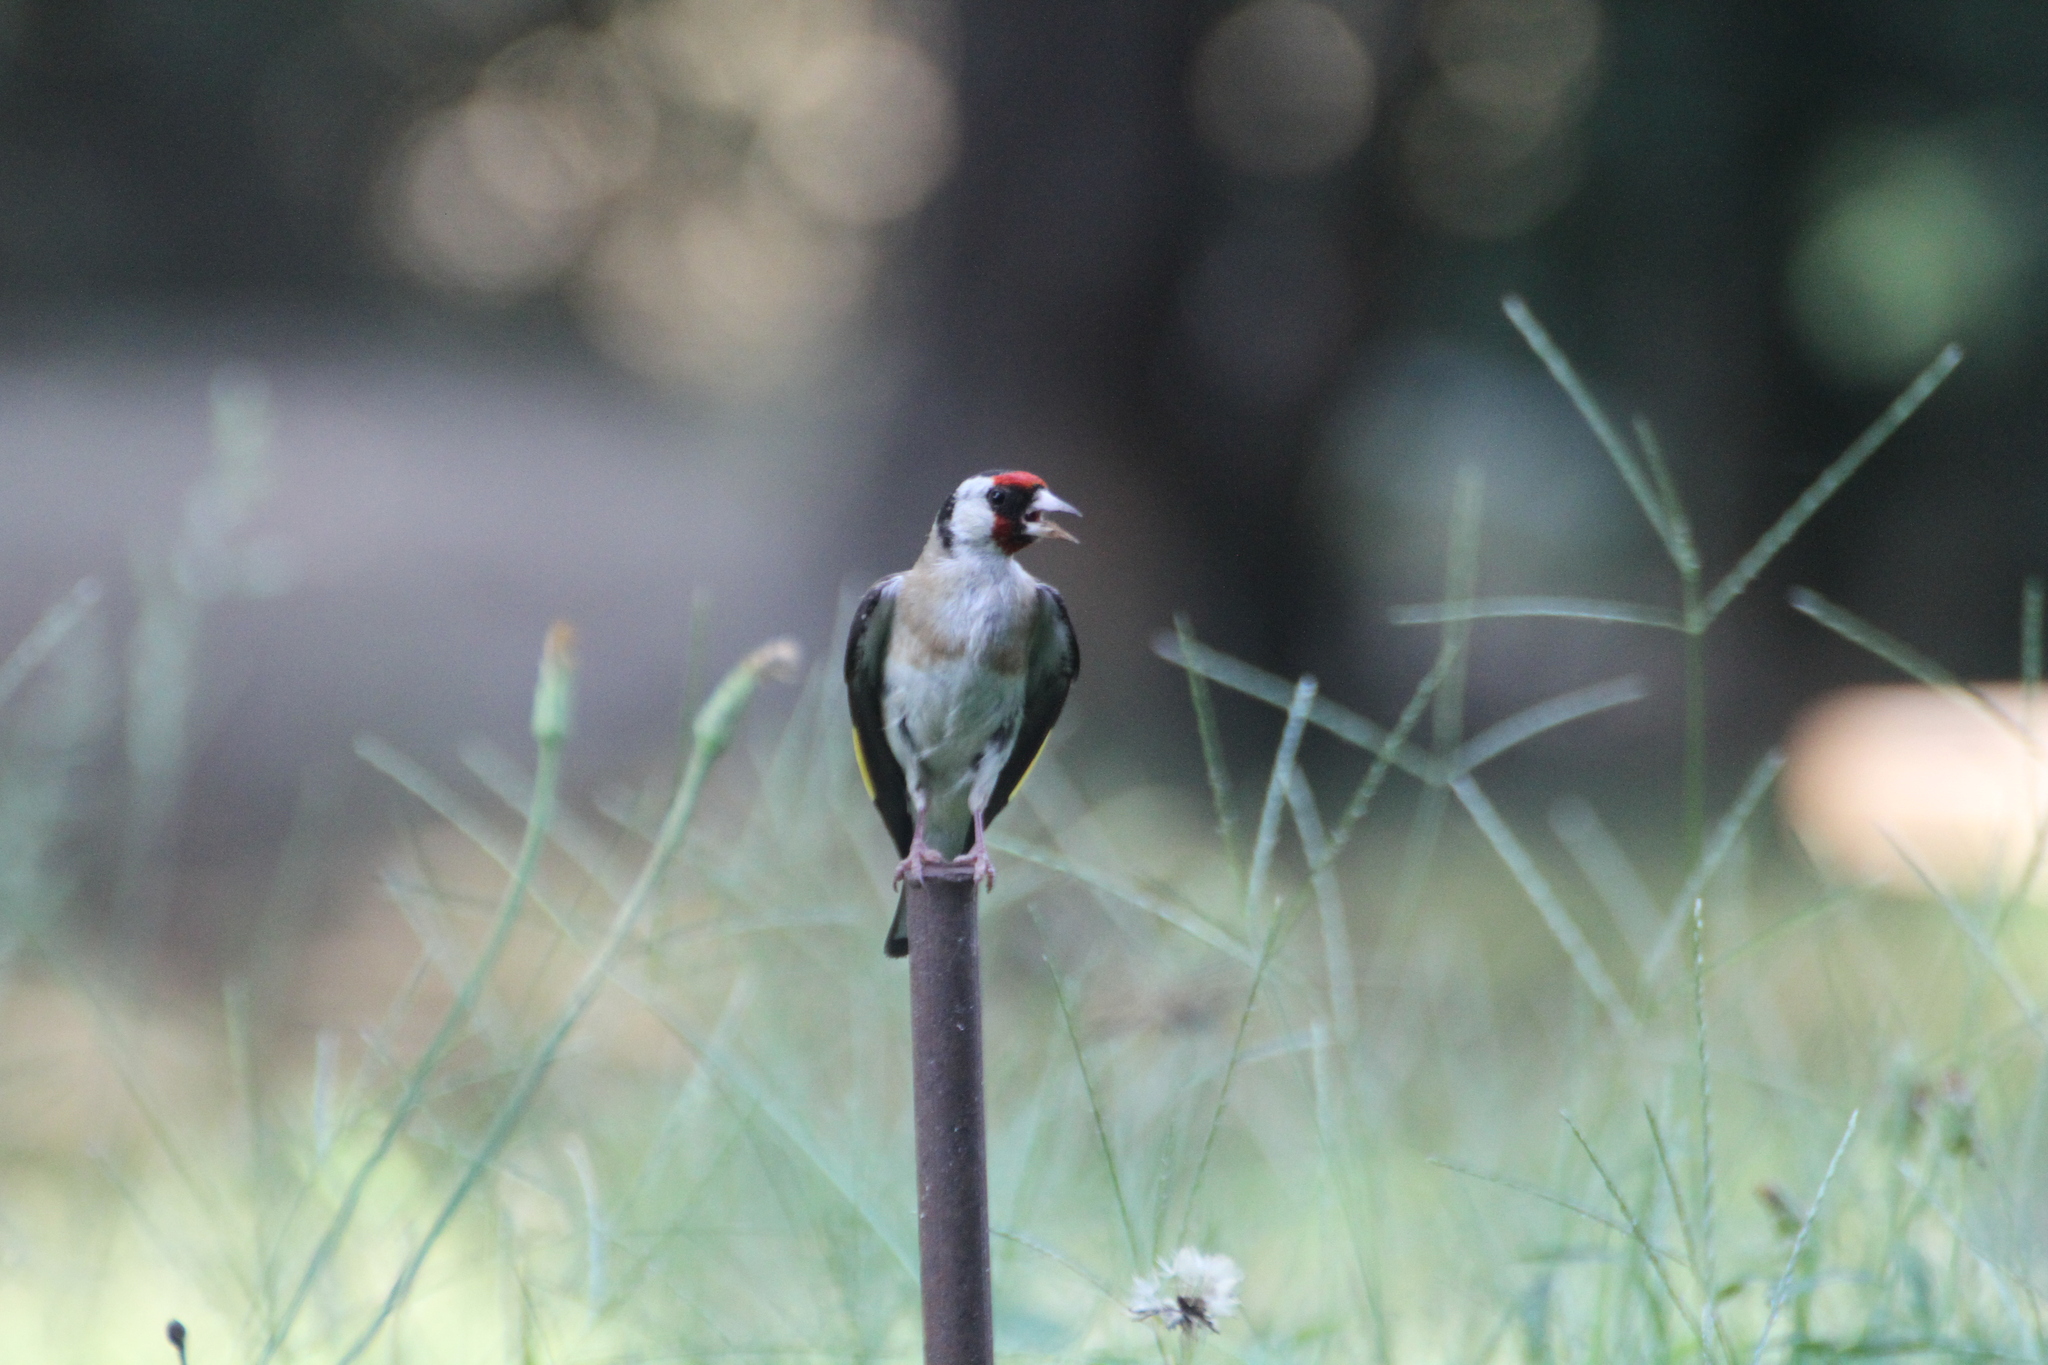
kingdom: Animalia
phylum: Chordata
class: Aves
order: Passeriformes
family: Fringillidae
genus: Carduelis
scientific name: Carduelis carduelis
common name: European goldfinch
